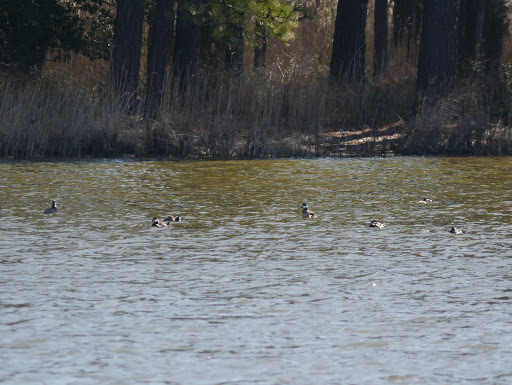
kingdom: Animalia
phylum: Chordata
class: Aves
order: Anseriformes
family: Anatidae
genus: Oxyura
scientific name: Oxyura jamaicensis
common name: Ruddy duck
